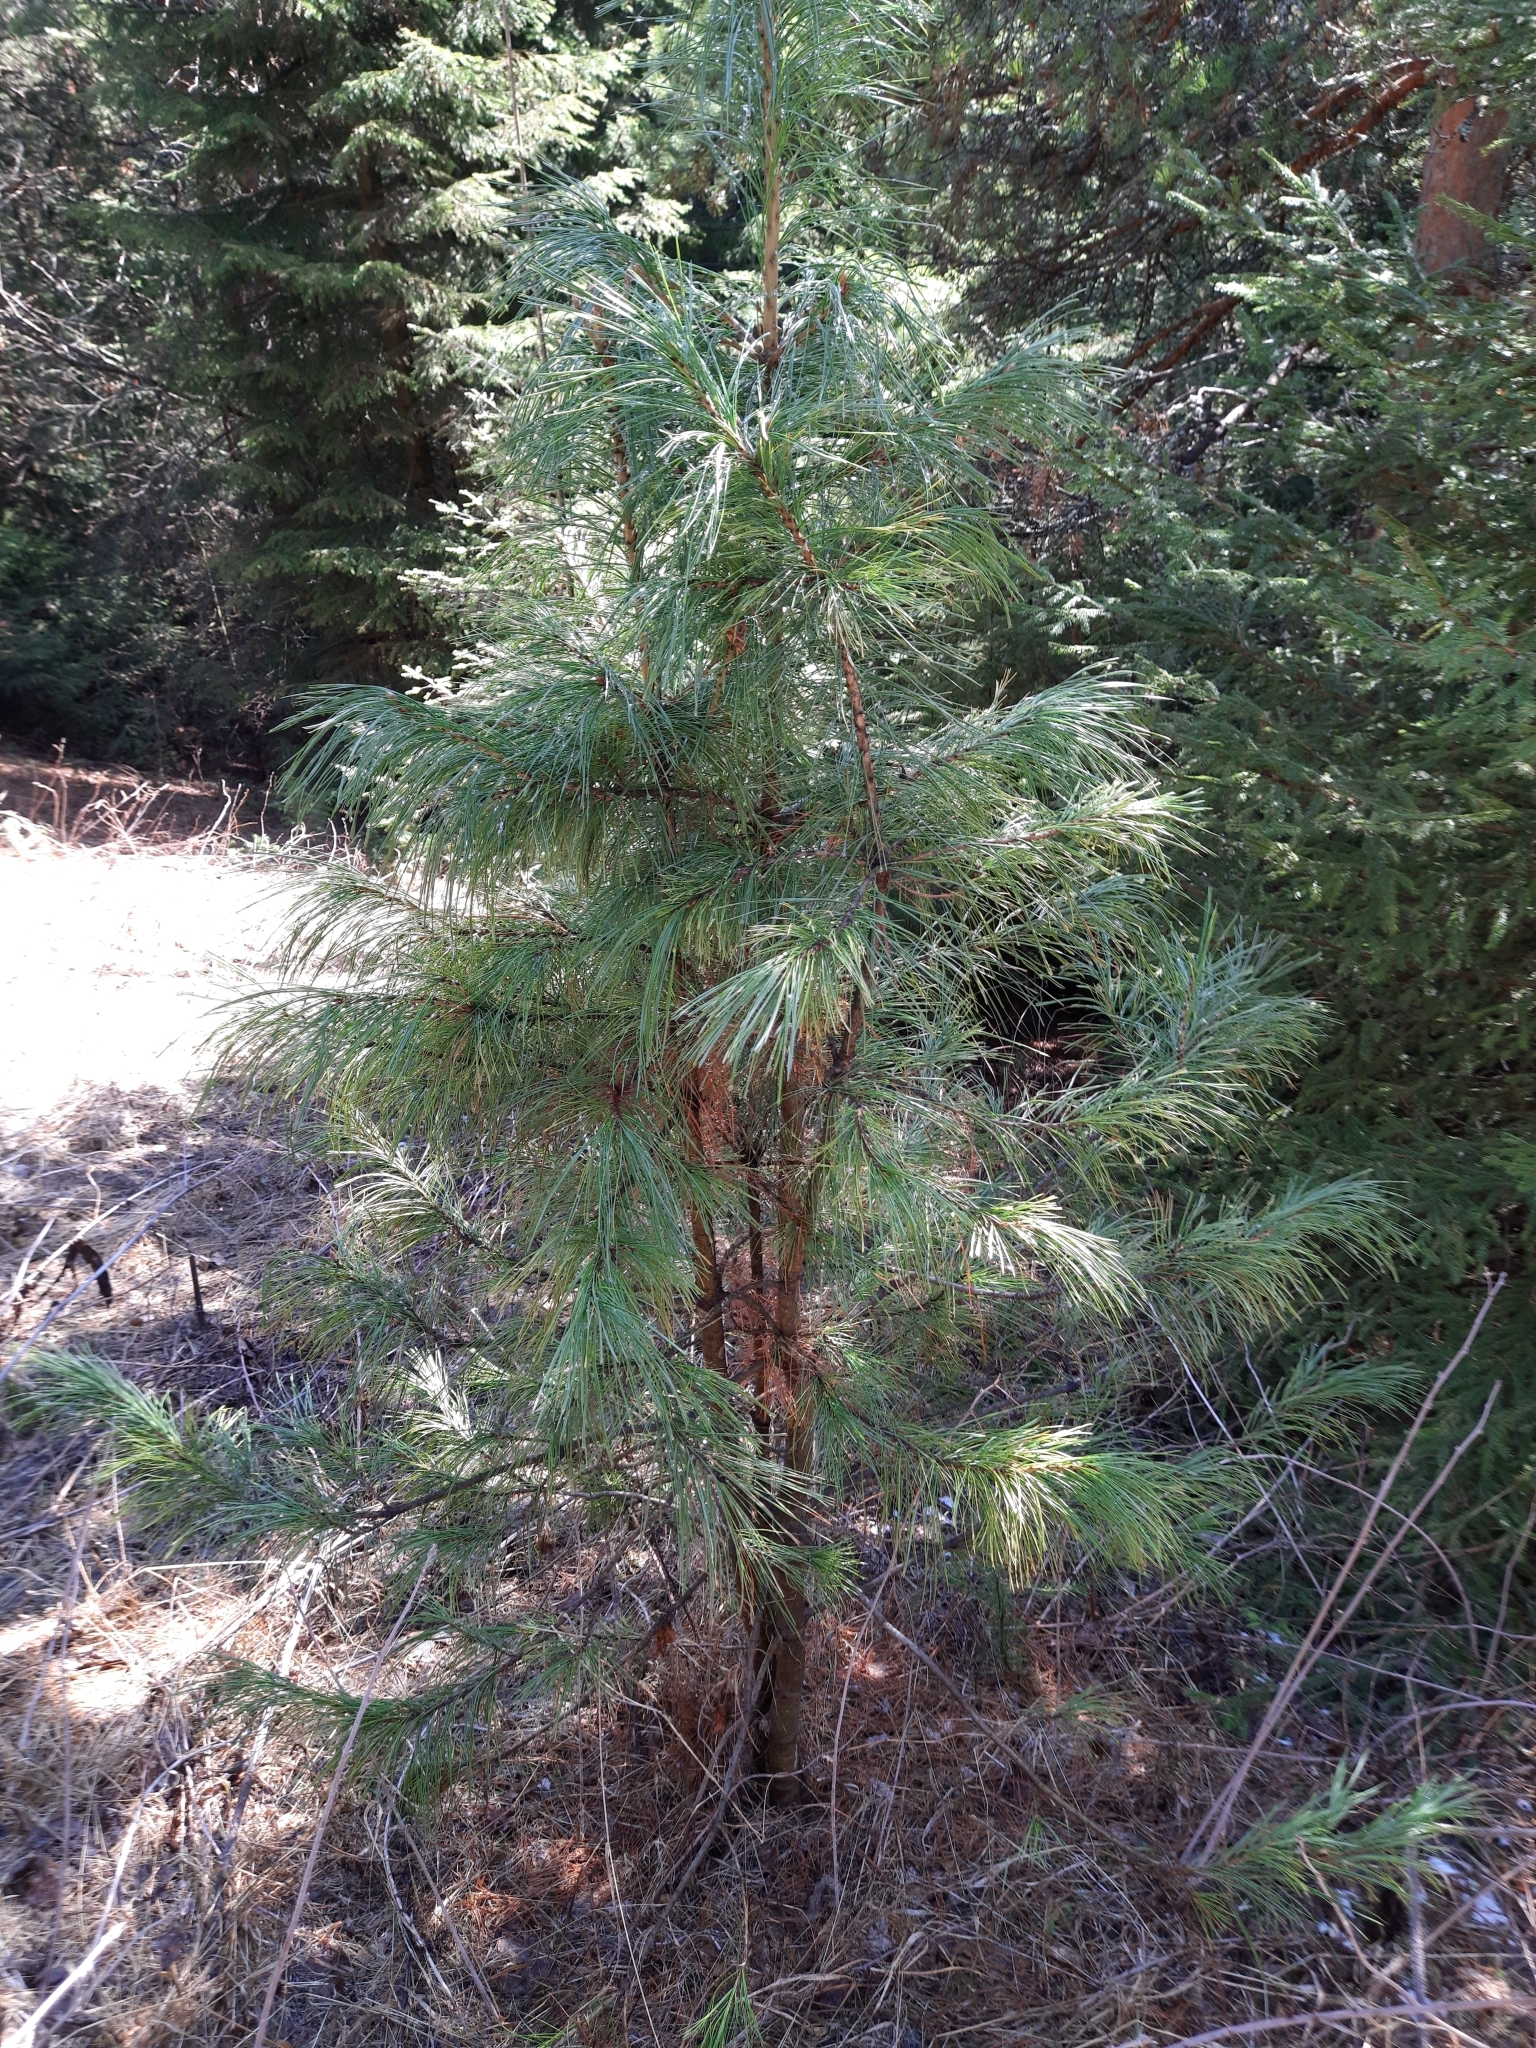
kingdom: Plantae
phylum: Tracheophyta
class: Pinopsida
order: Pinales
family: Pinaceae
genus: Pinus
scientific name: Pinus sibirica
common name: Siberian pine
